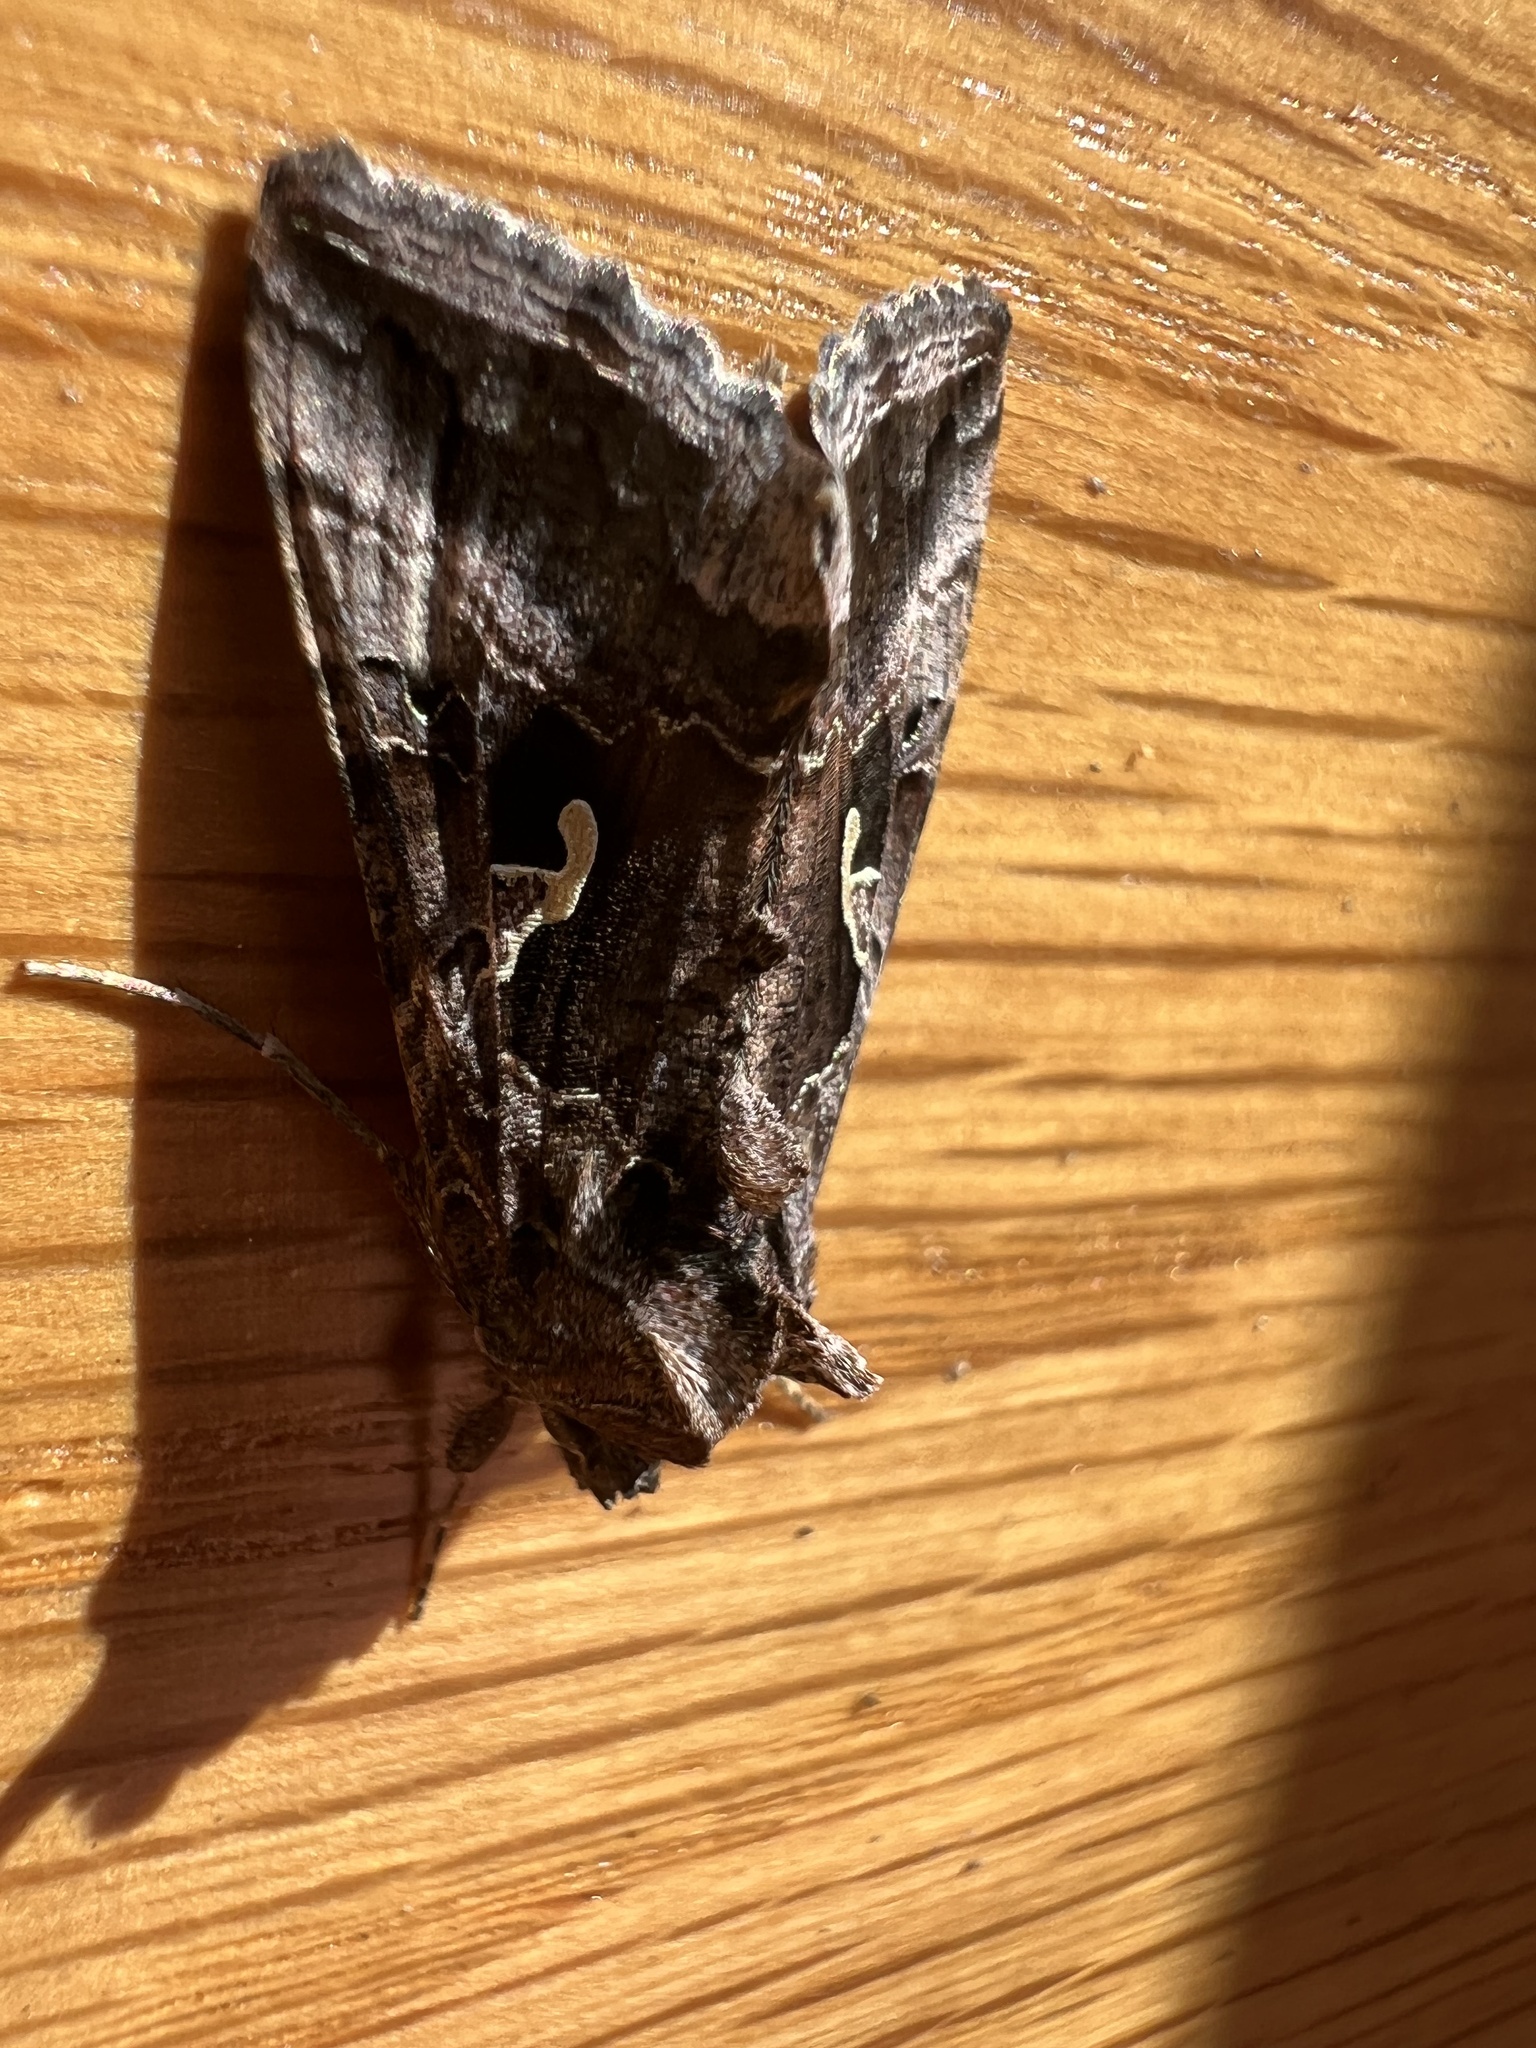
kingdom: Animalia
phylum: Arthropoda
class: Insecta
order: Lepidoptera
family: Noctuidae
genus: Autographa
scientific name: Autographa gamma
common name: Silver y
